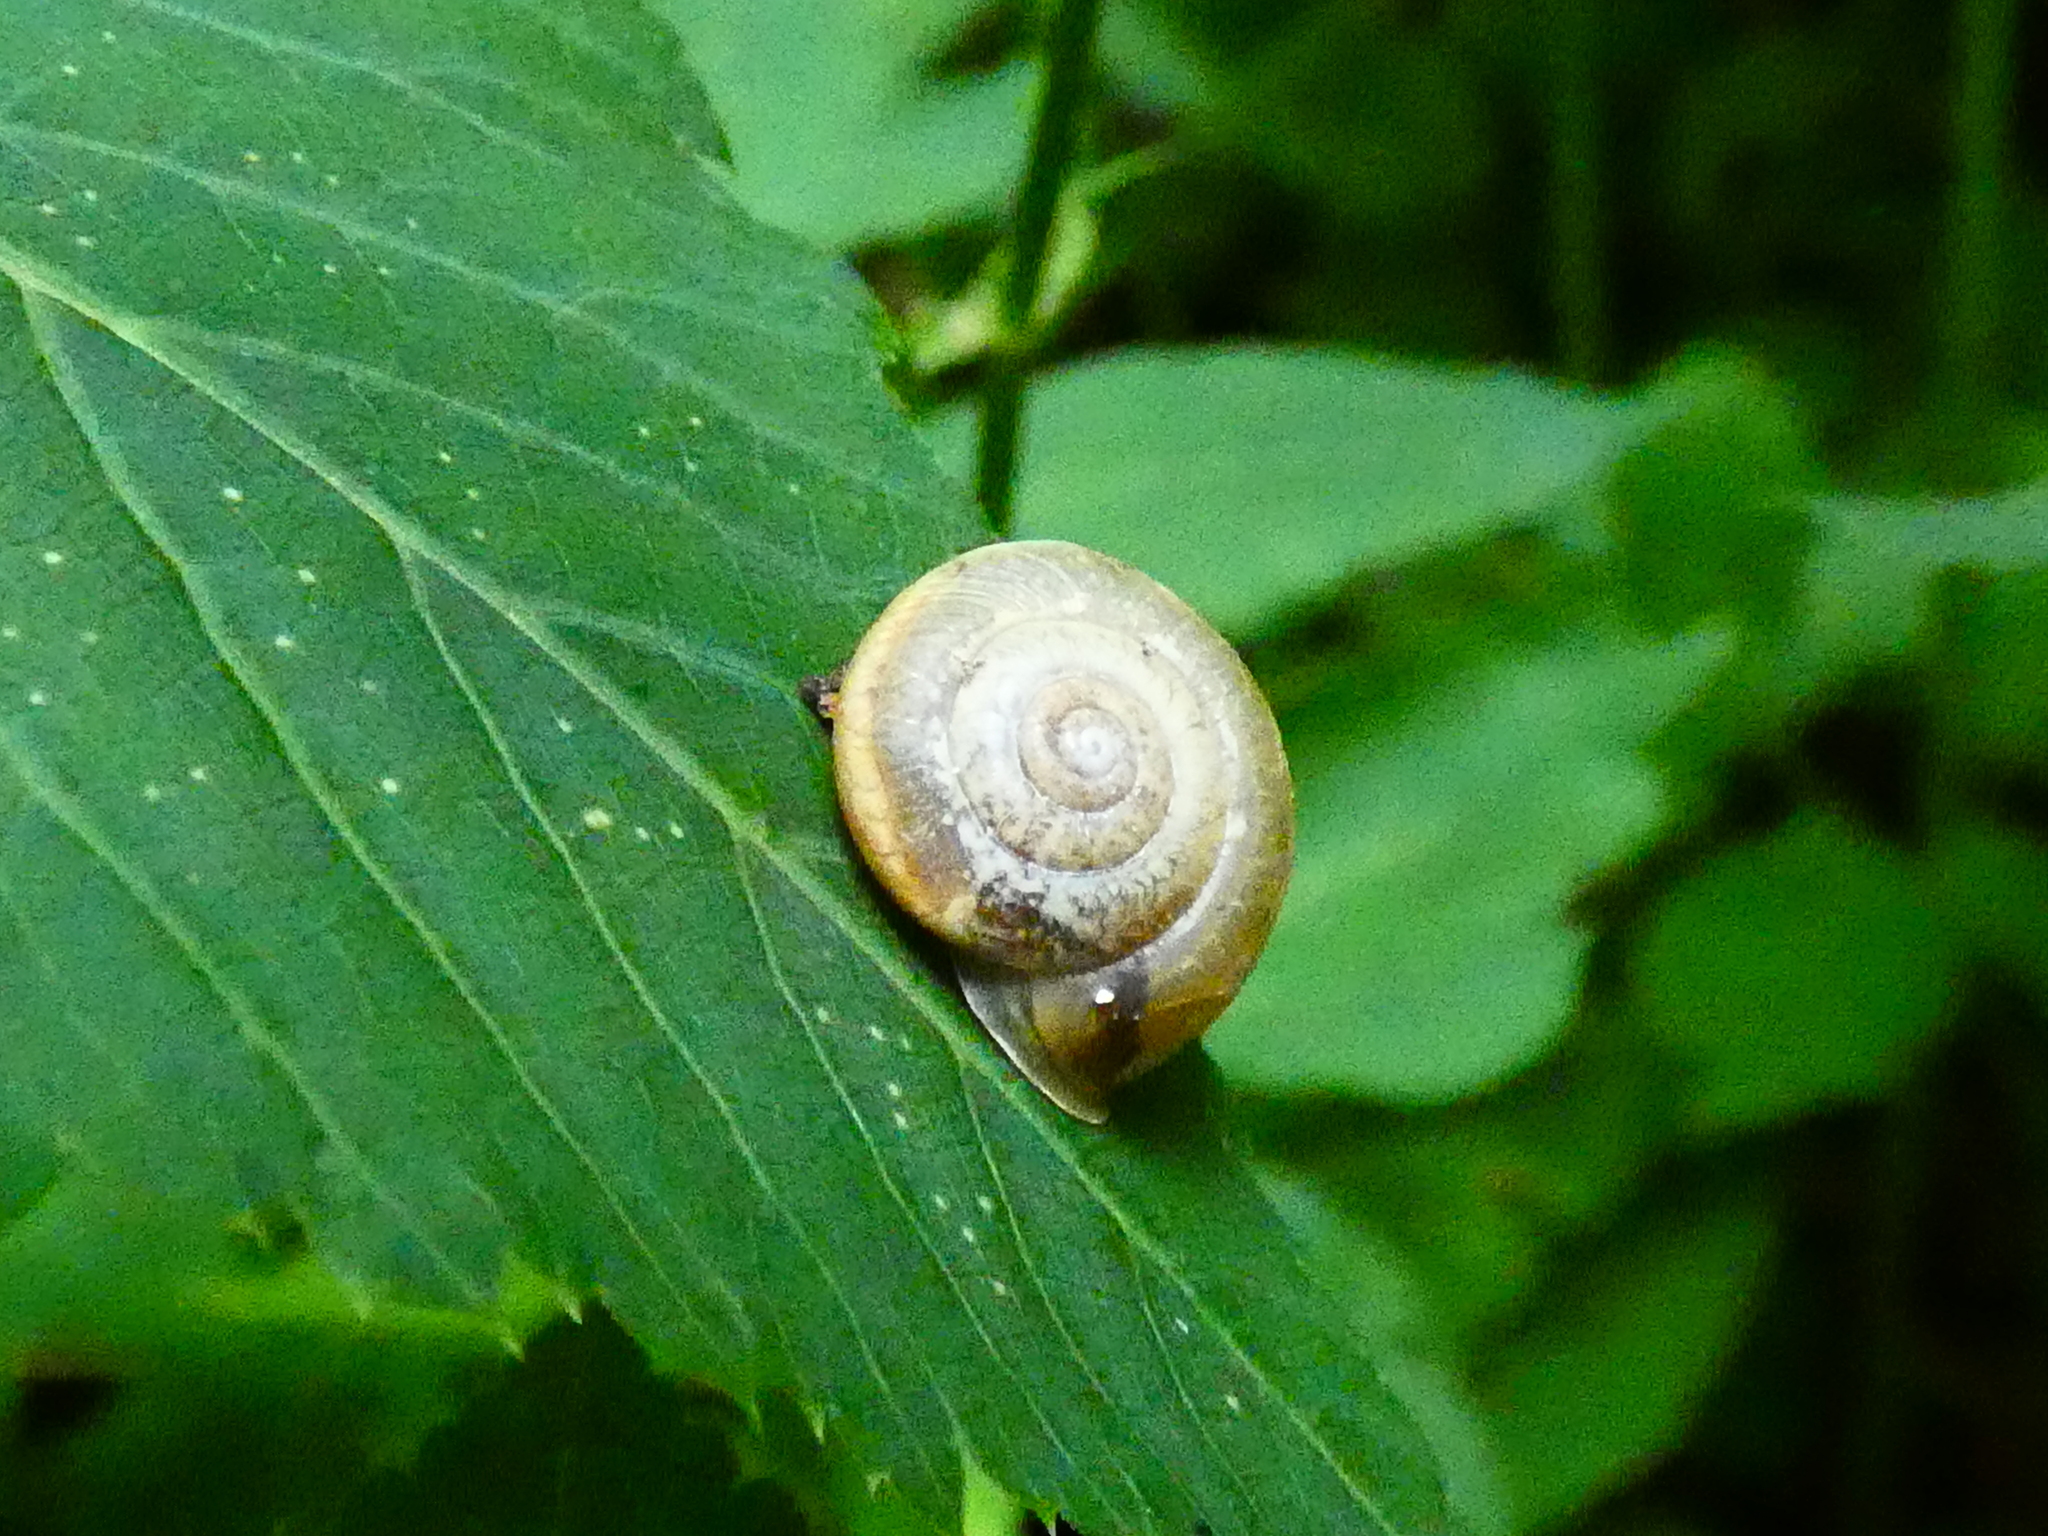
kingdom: Animalia
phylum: Mollusca
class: Gastropoda
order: Stylommatophora
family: Hygromiidae
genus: Urticicola
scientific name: Urticicola umbrosus
